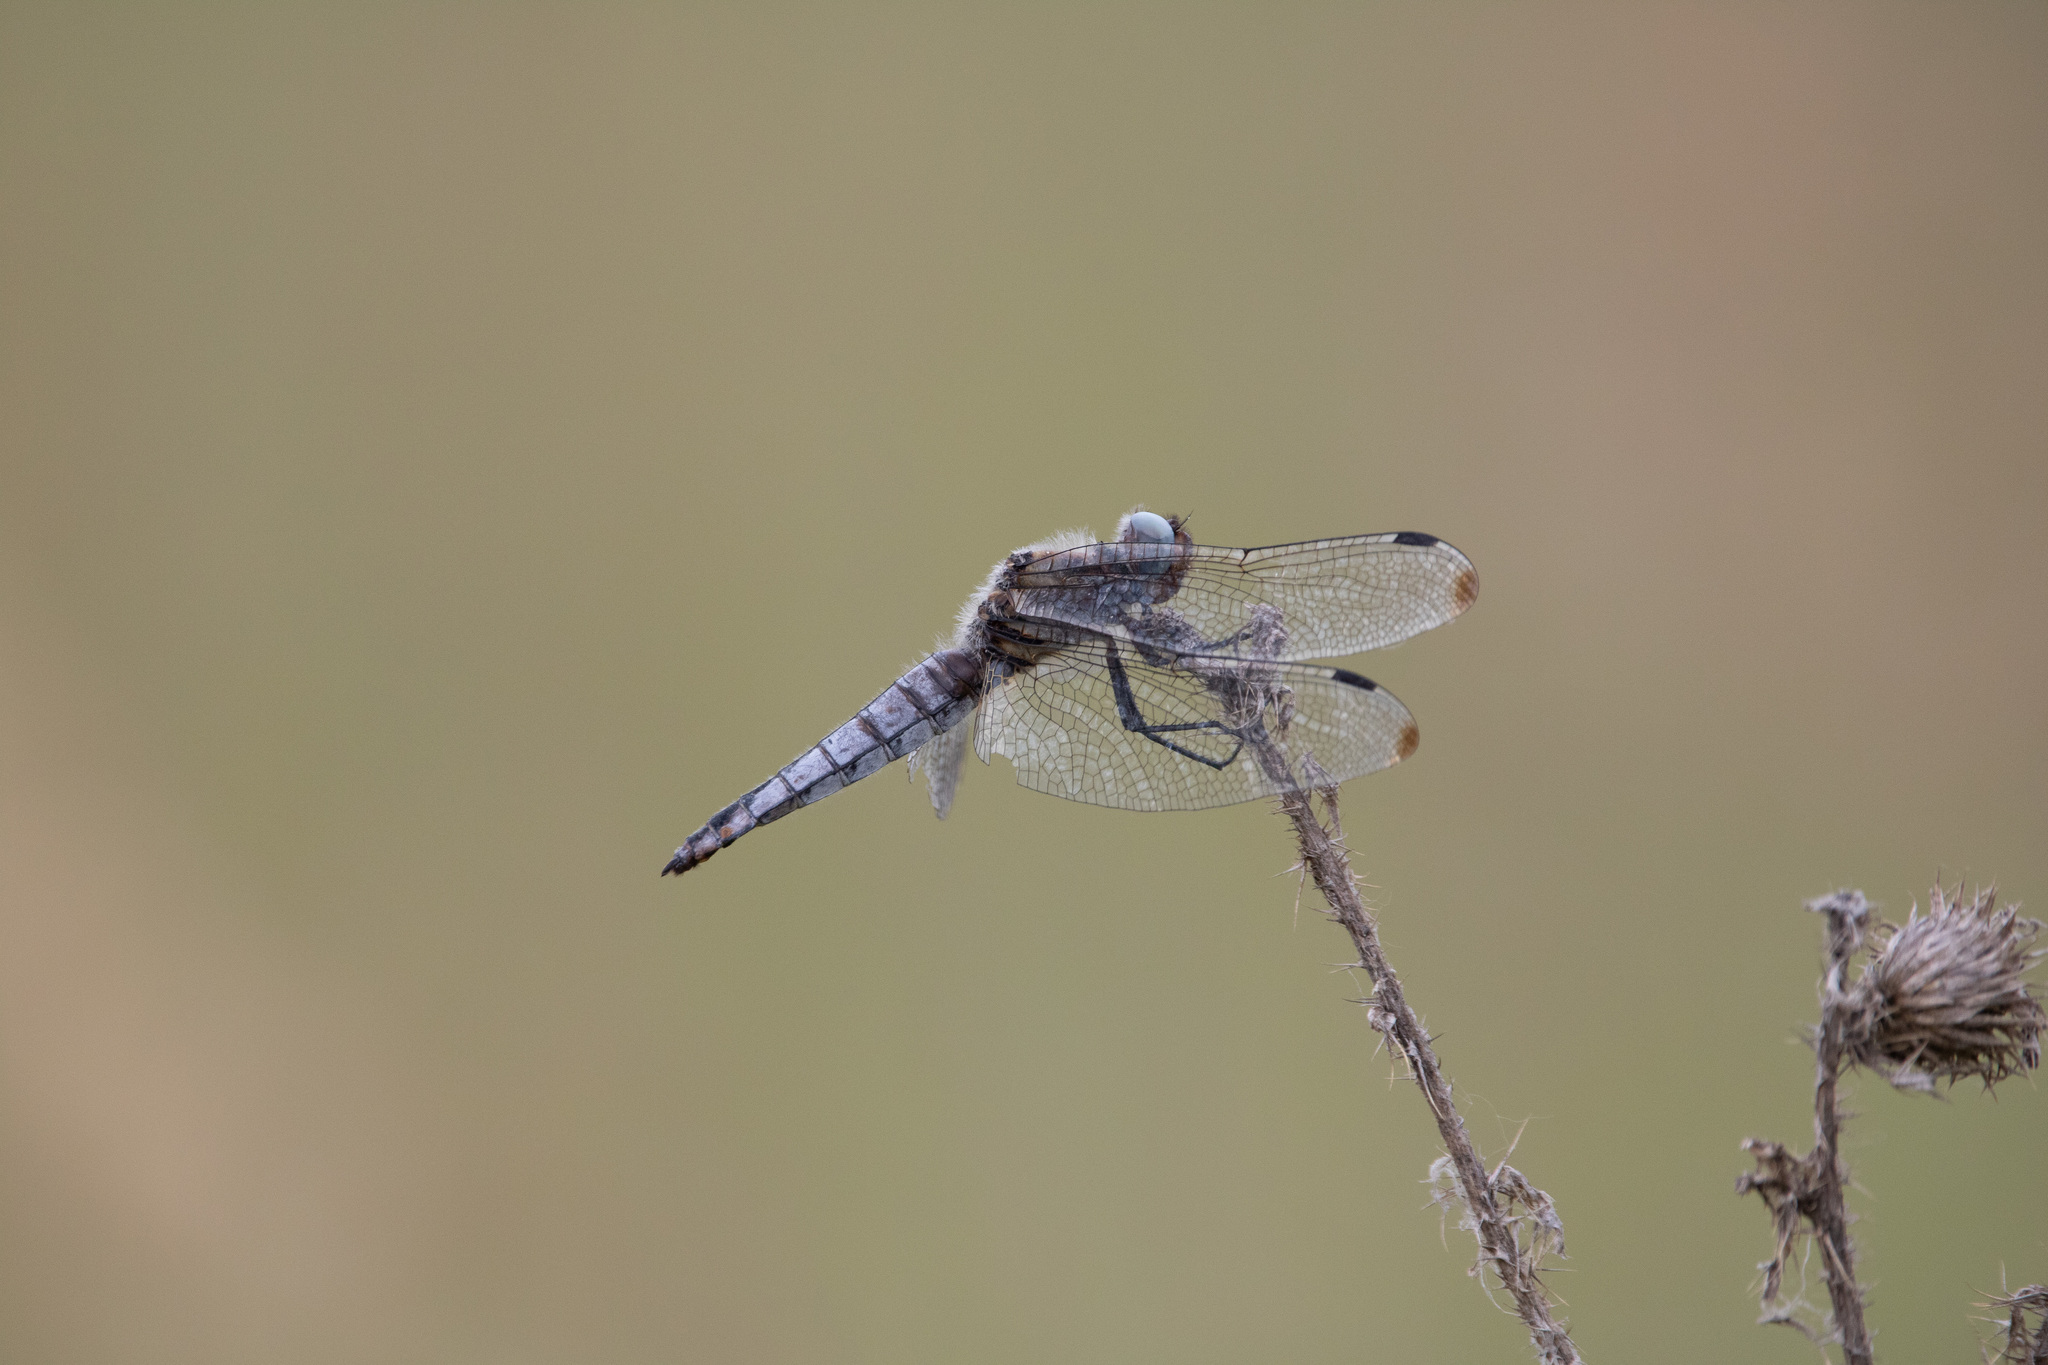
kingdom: Animalia
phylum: Arthropoda
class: Insecta
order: Odonata
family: Libellulidae
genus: Libellula
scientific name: Libellula fulva
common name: Blue chaser
